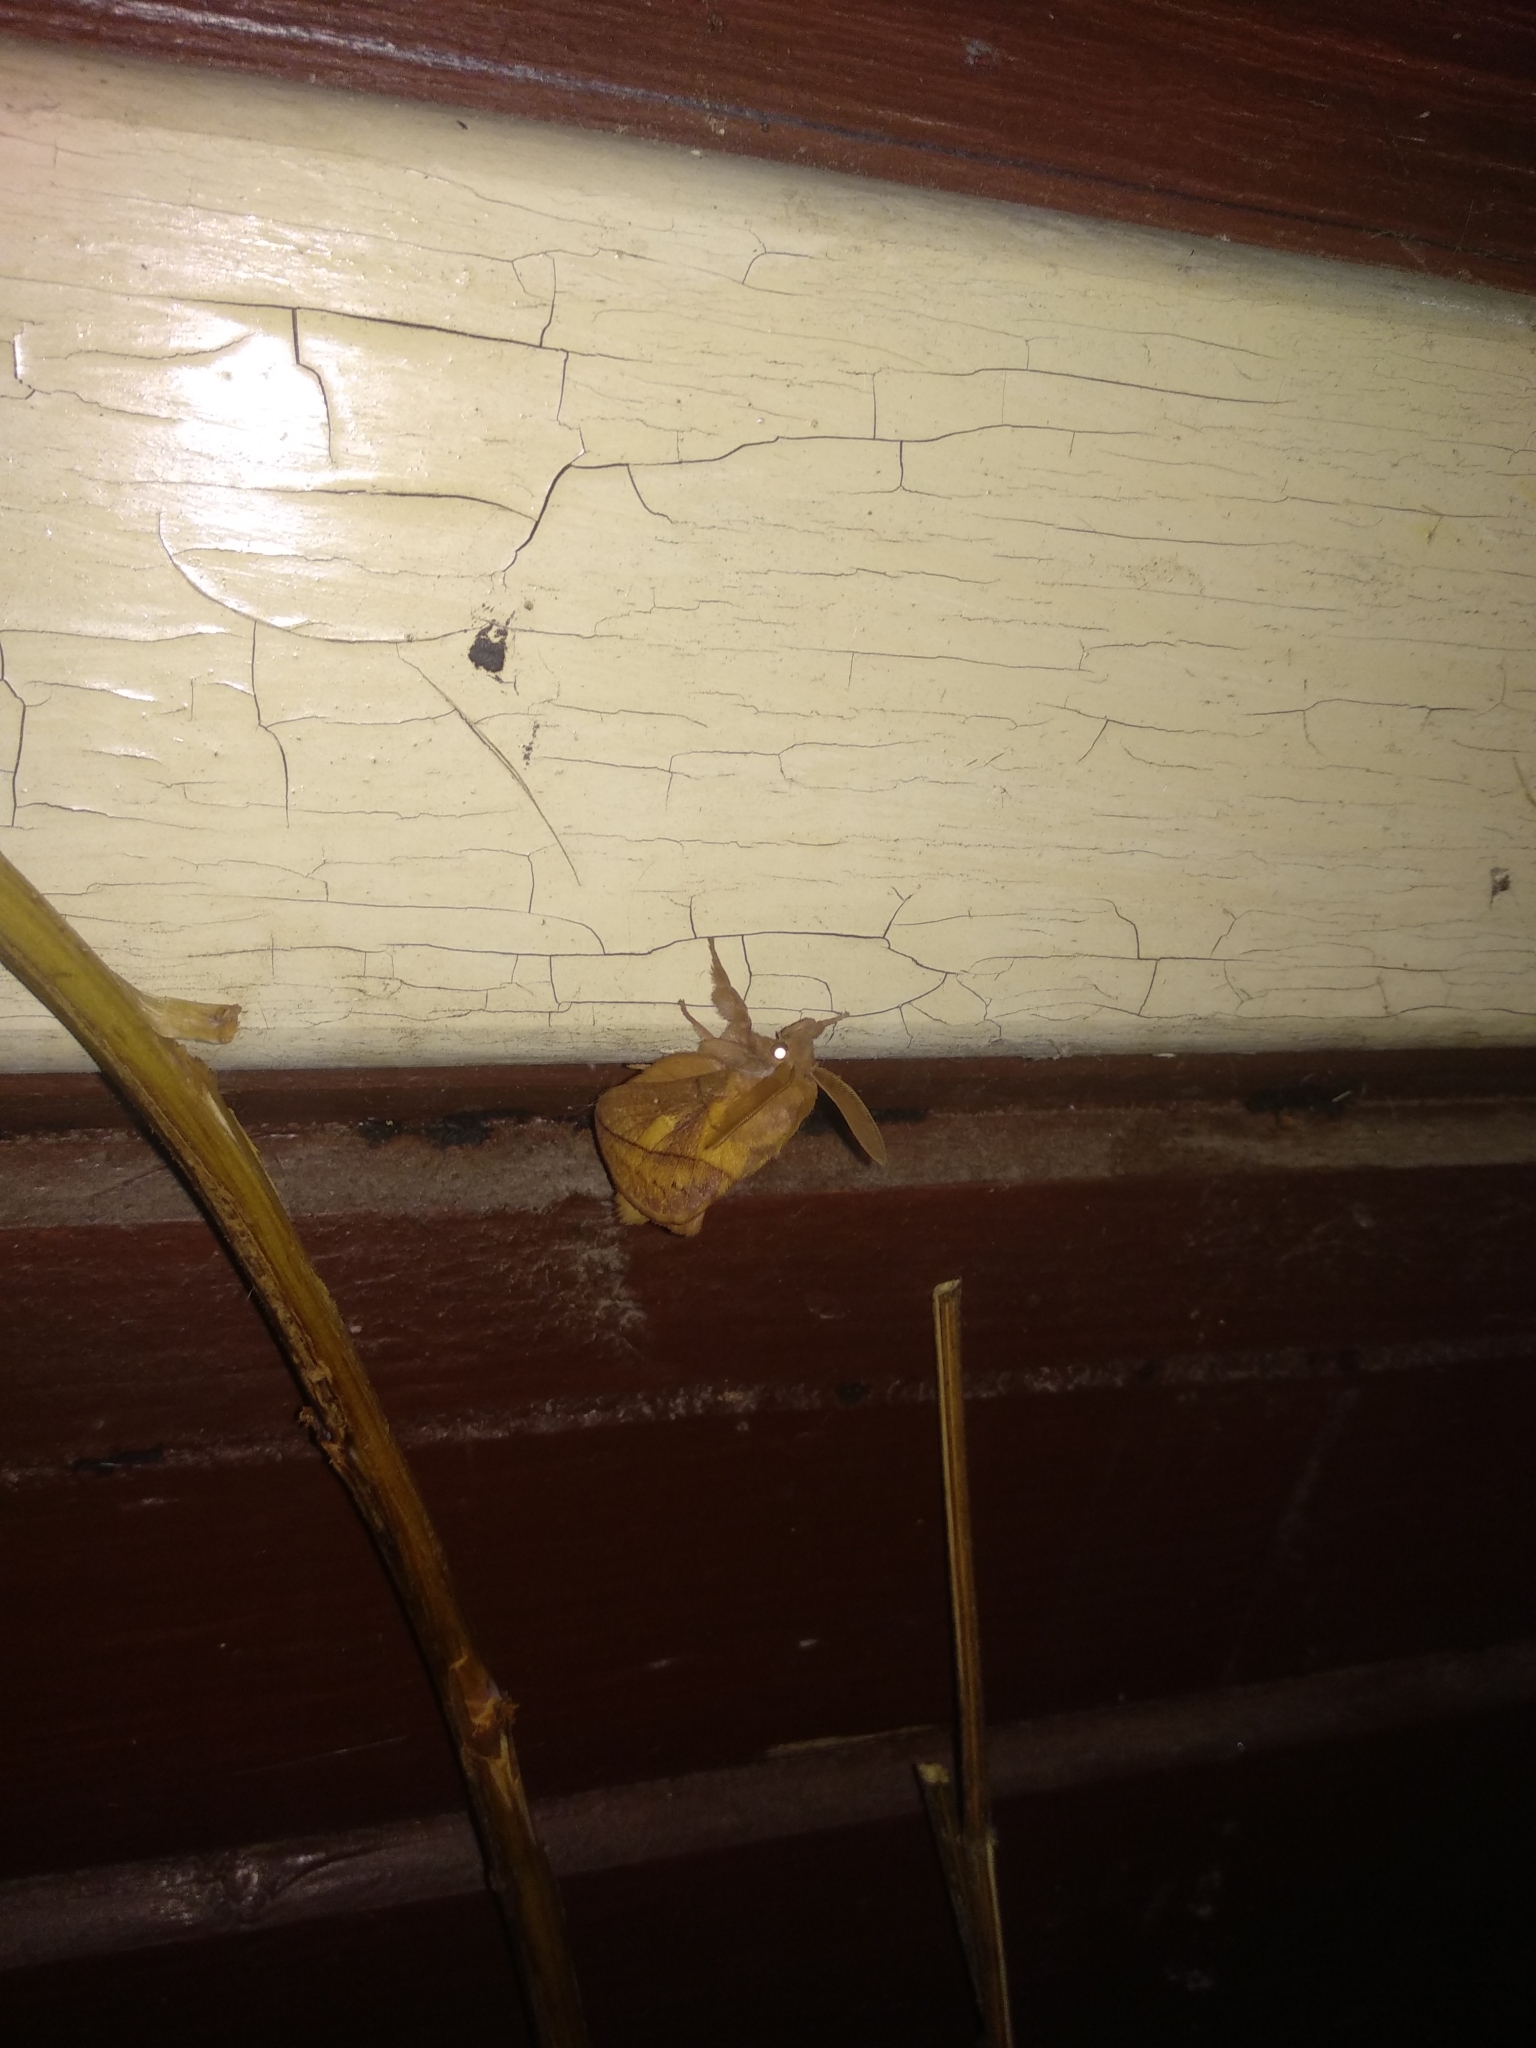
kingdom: Animalia
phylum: Arthropoda
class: Insecta
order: Lepidoptera
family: Lasiocampidae
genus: Euthrix
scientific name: Euthrix potatoria
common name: Drinker
